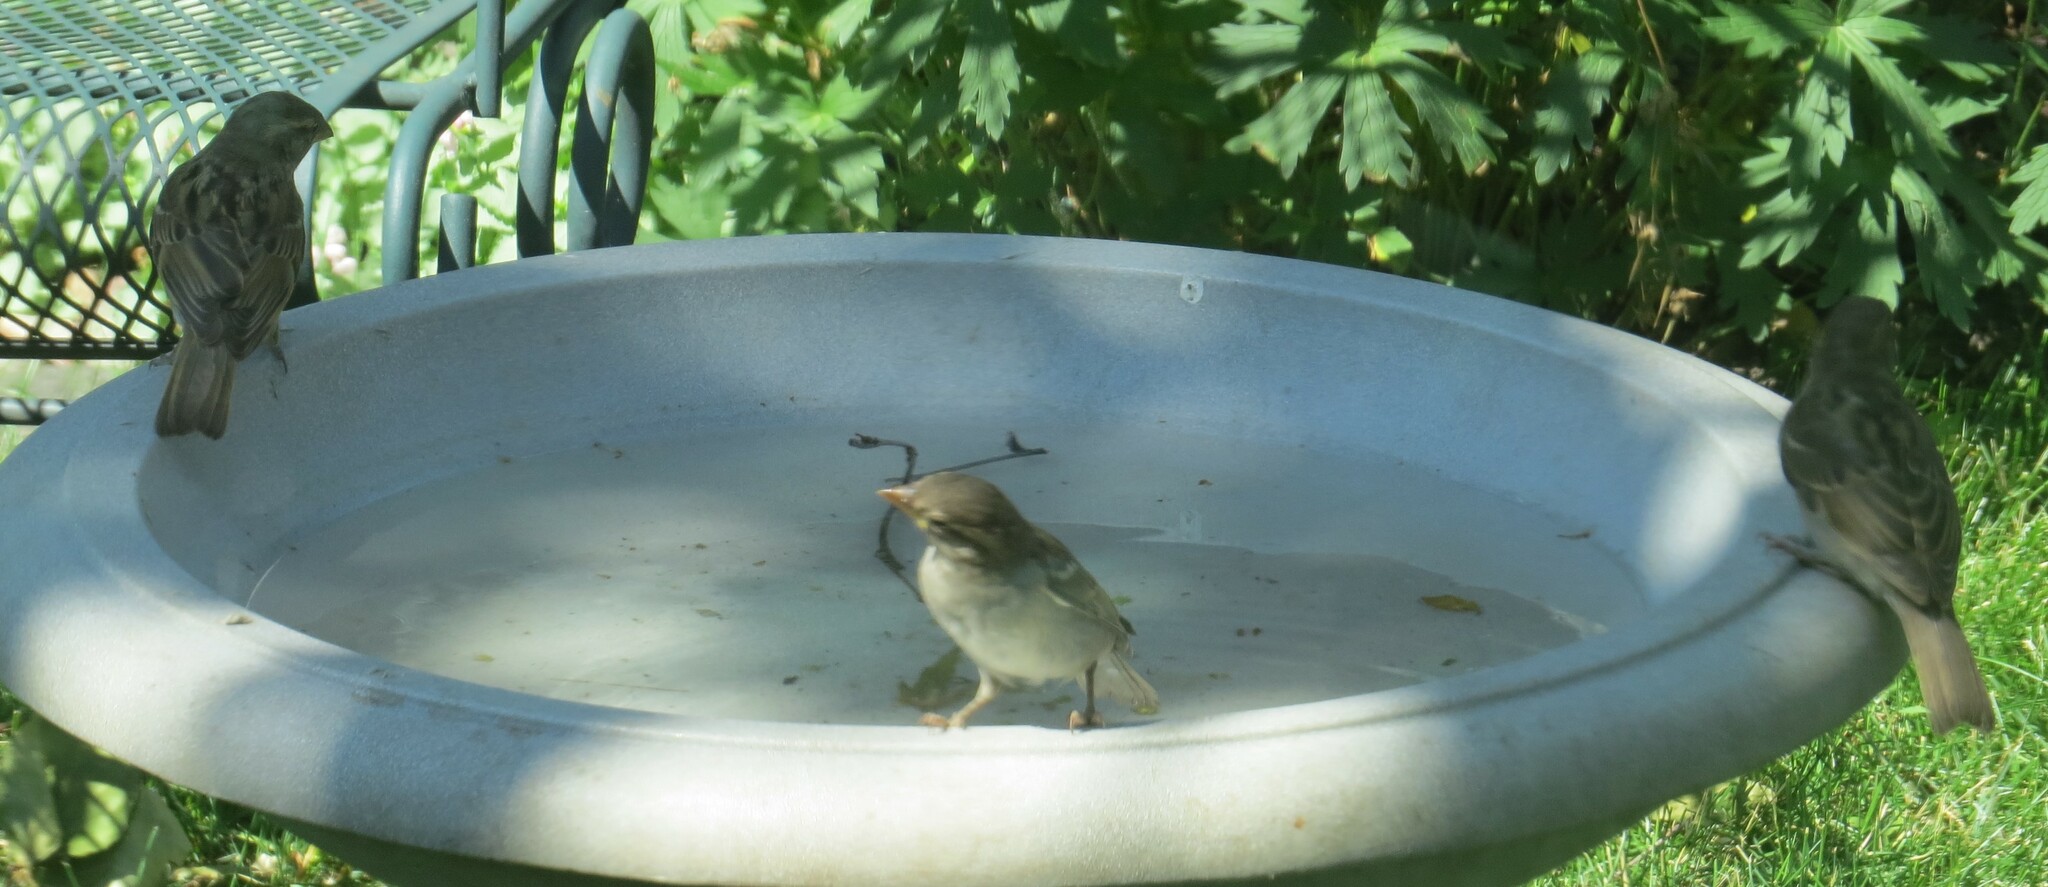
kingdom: Animalia
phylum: Chordata
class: Aves
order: Passeriformes
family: Passeridae
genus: Passer
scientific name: Passer domesticus
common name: House sparrow
